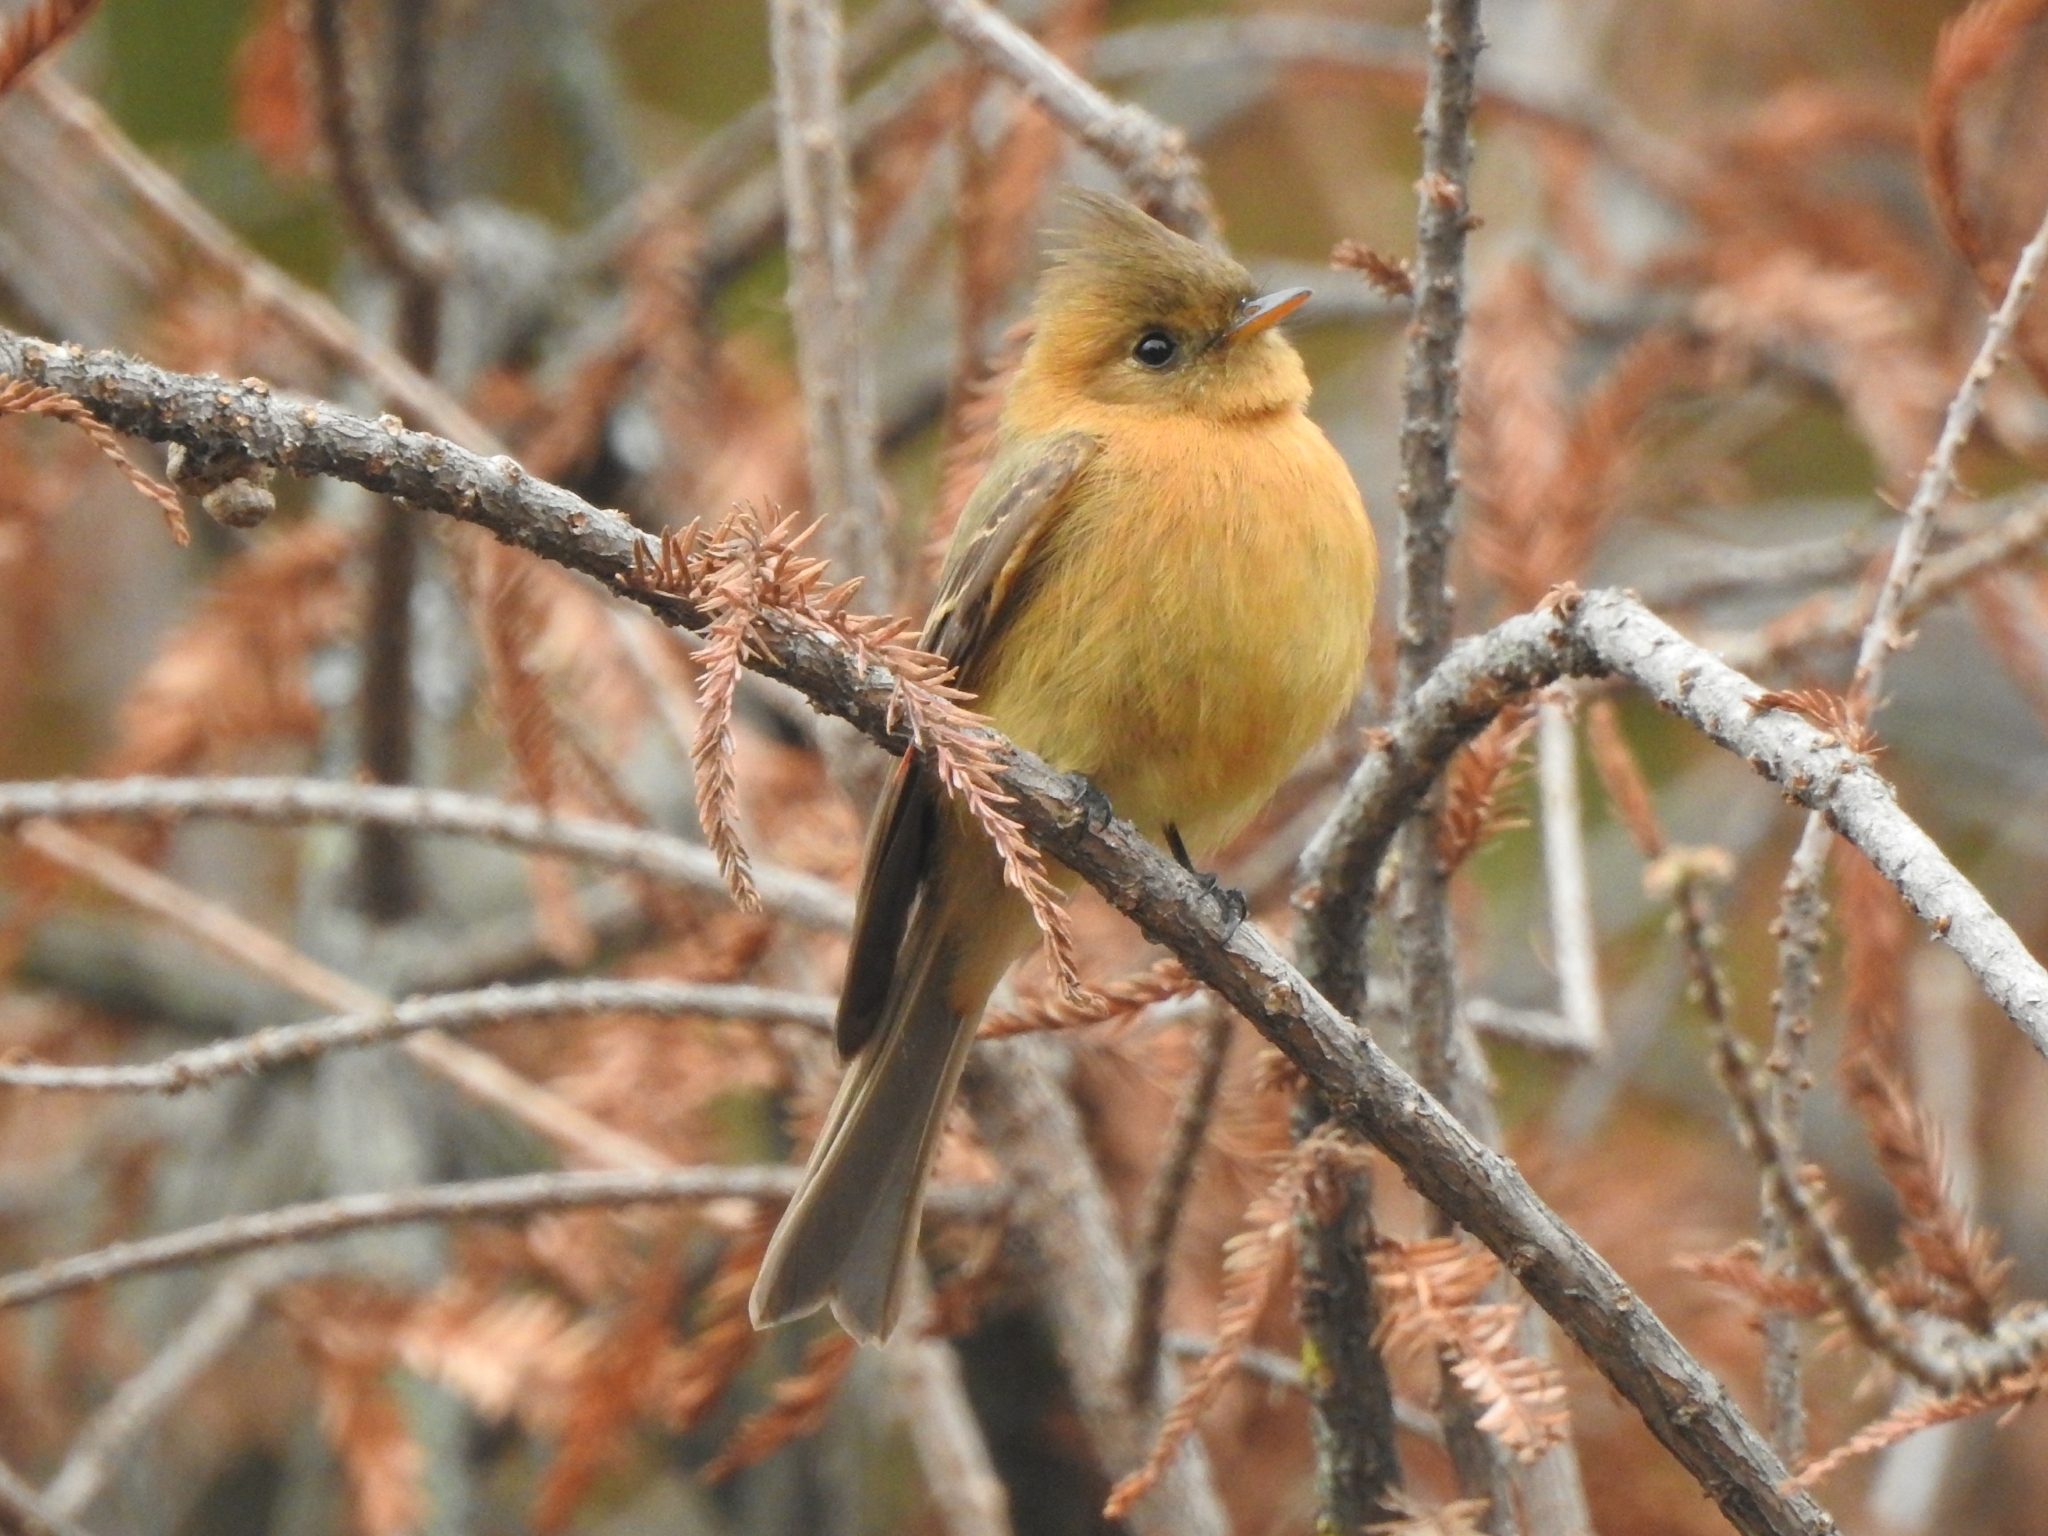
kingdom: Animalia
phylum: Chordata
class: Aves
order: Passeriformes
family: Tyrannidae
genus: Mitrephanes
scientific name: Mitrephanes phaeocercus
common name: Northern tufted flycatcher
